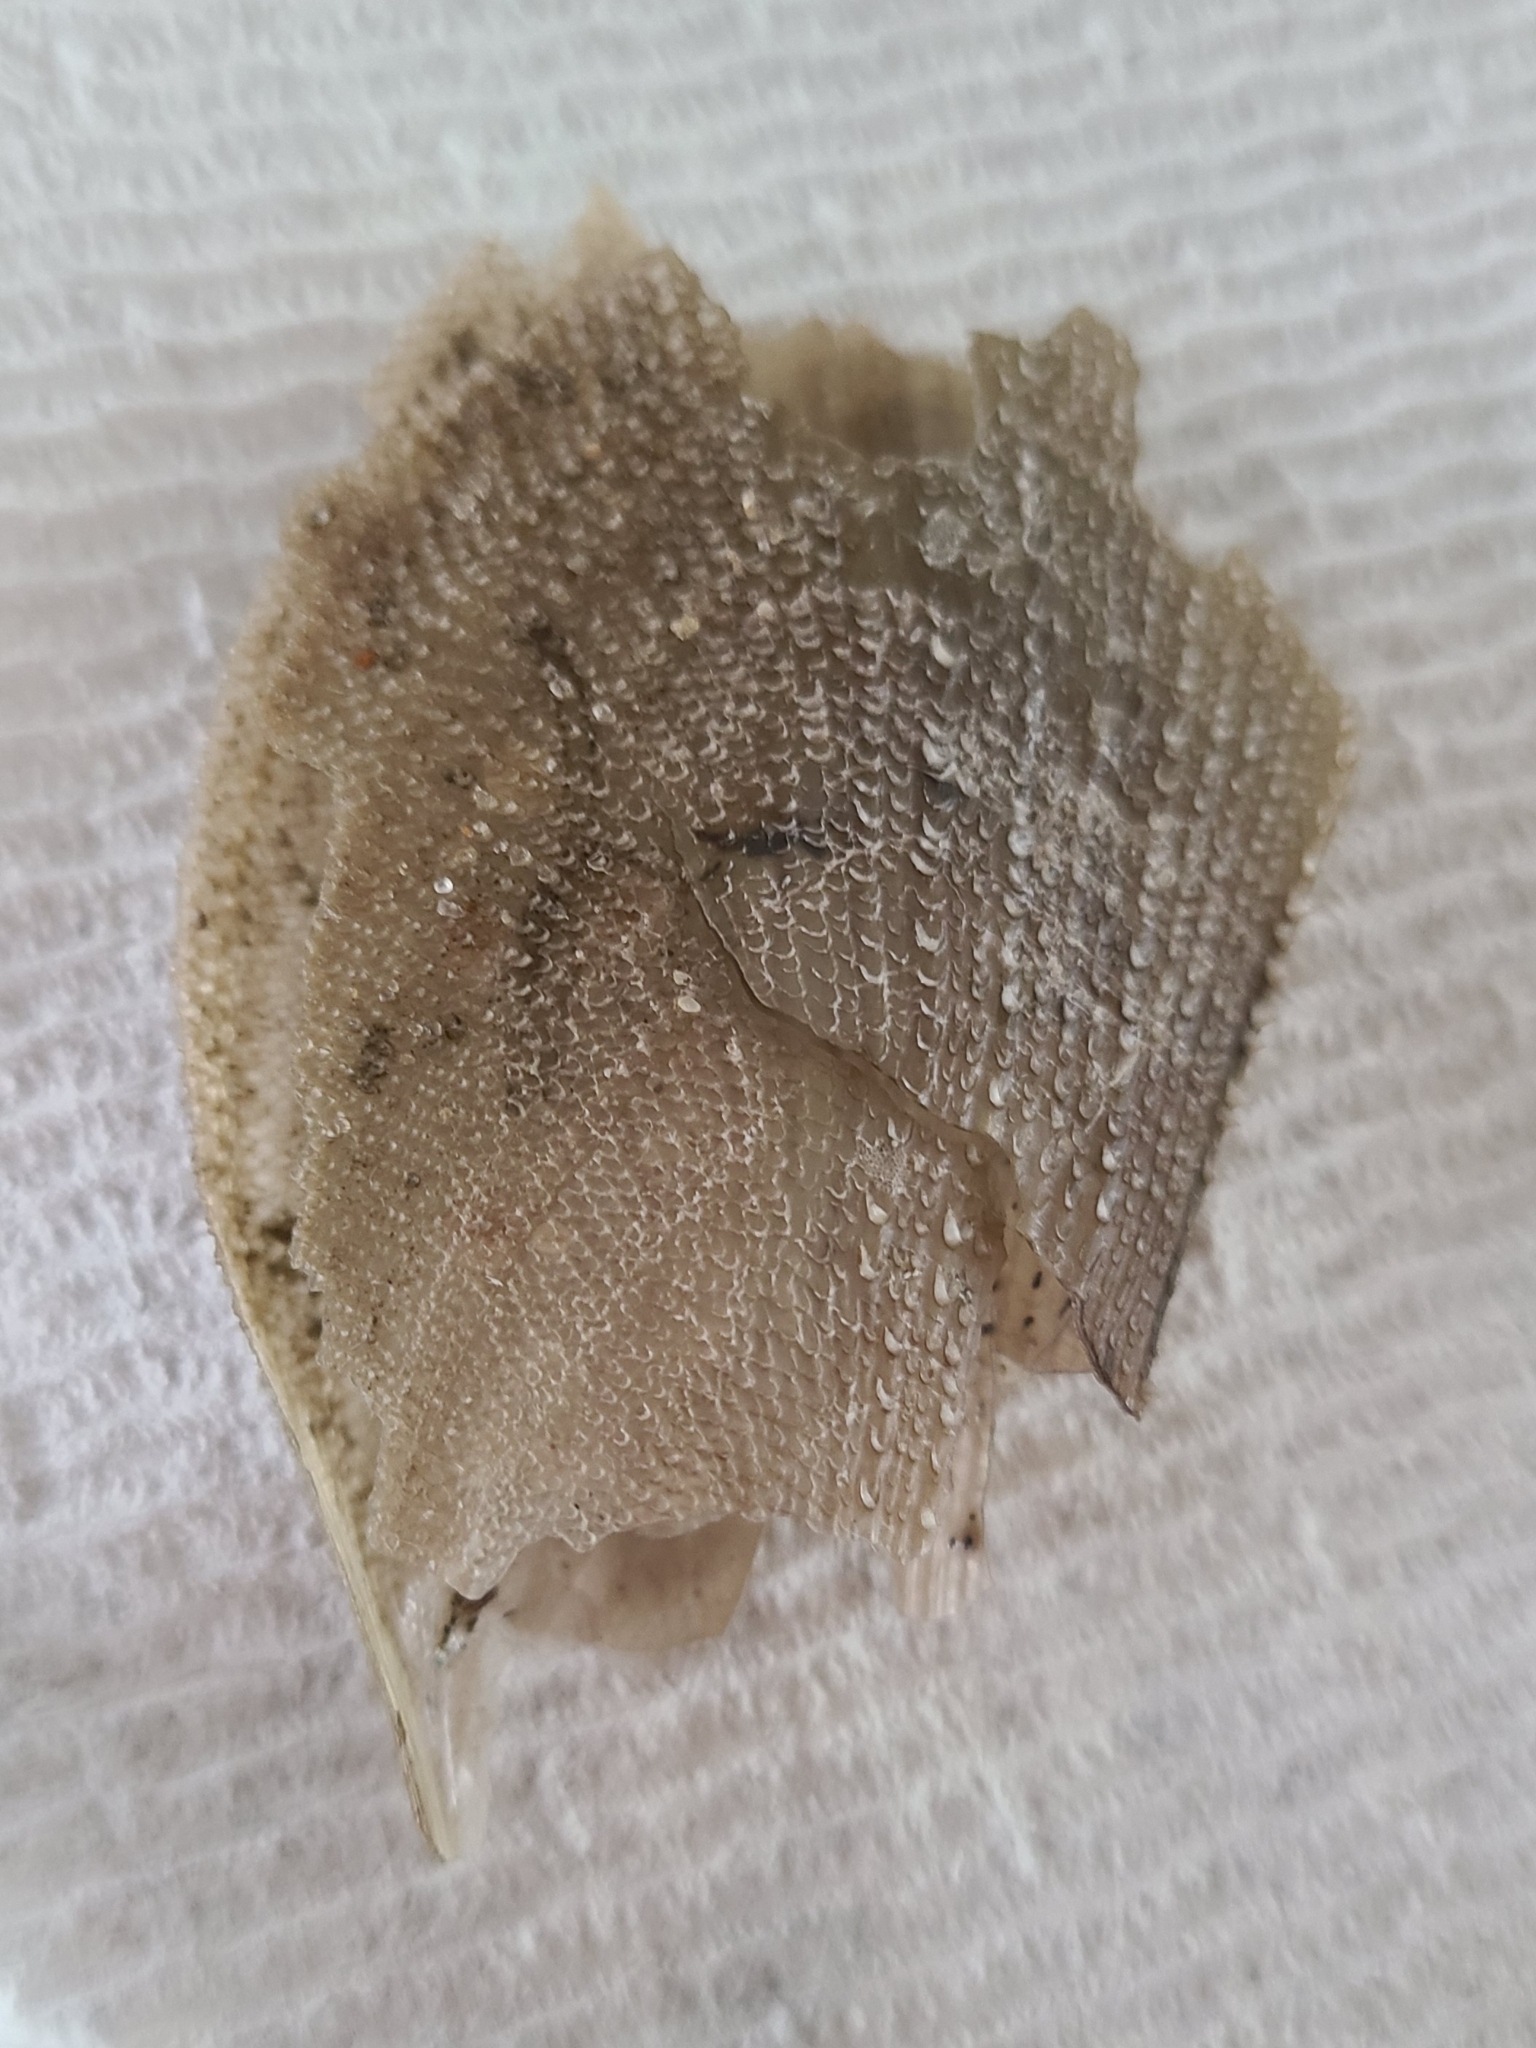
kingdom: Animalia
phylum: Mollusca
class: Bivalvia
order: Ostreida
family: Pinnidae
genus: Atrina
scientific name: Atrina serrata
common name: Saw-toothed penshell
